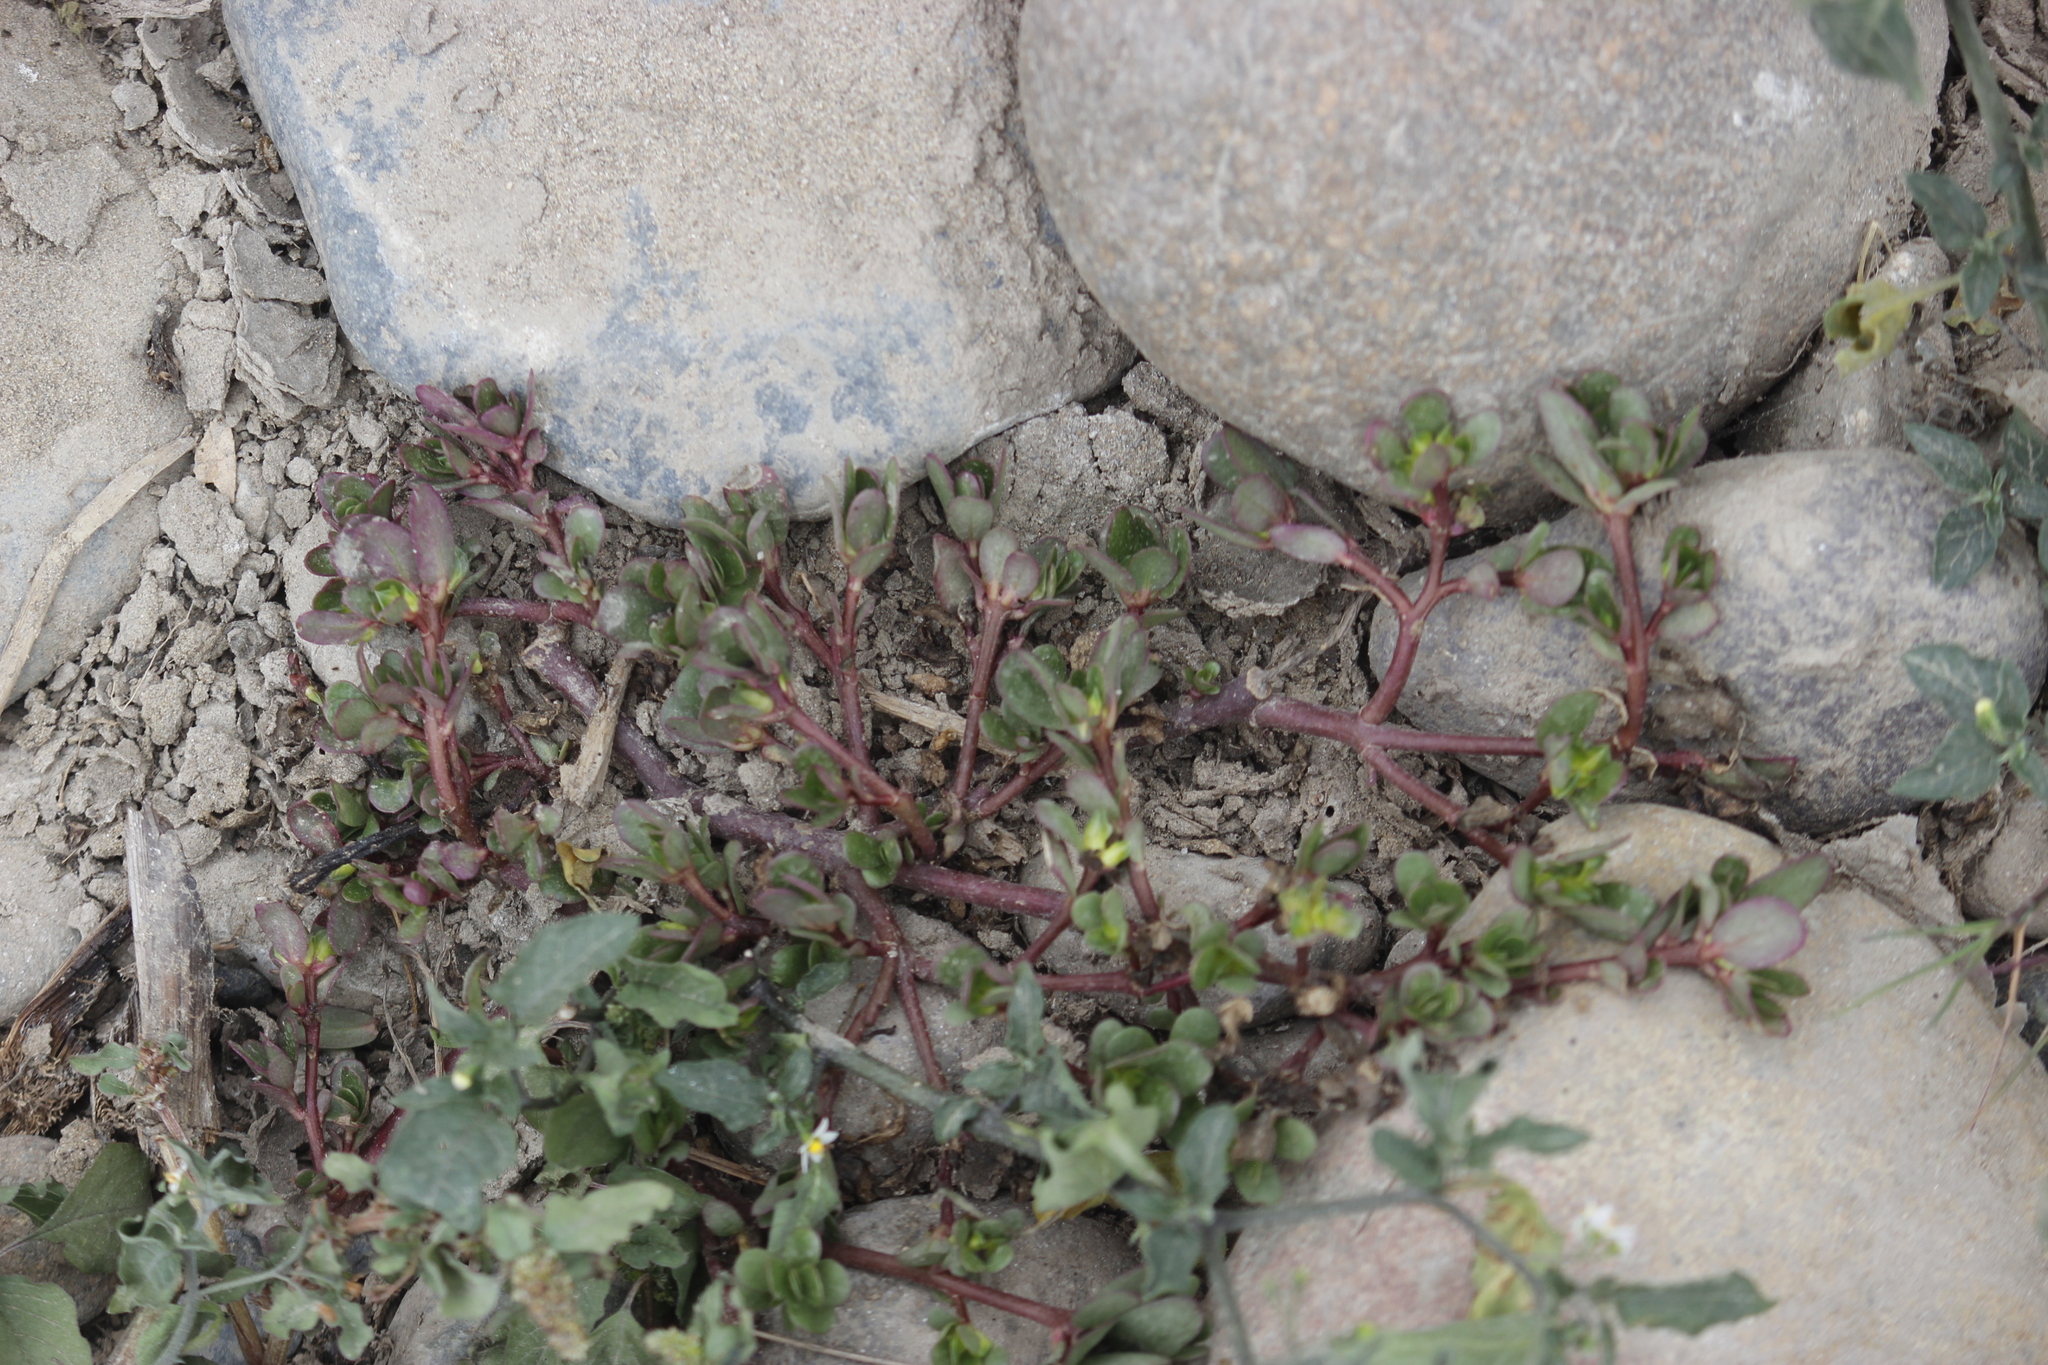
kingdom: Plantae
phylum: Tracheophyta
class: Magnoliopsida
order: Caryophyllales
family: Portulacaceae
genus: Portulaca
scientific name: Portulaca oleracea
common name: Common purslane
